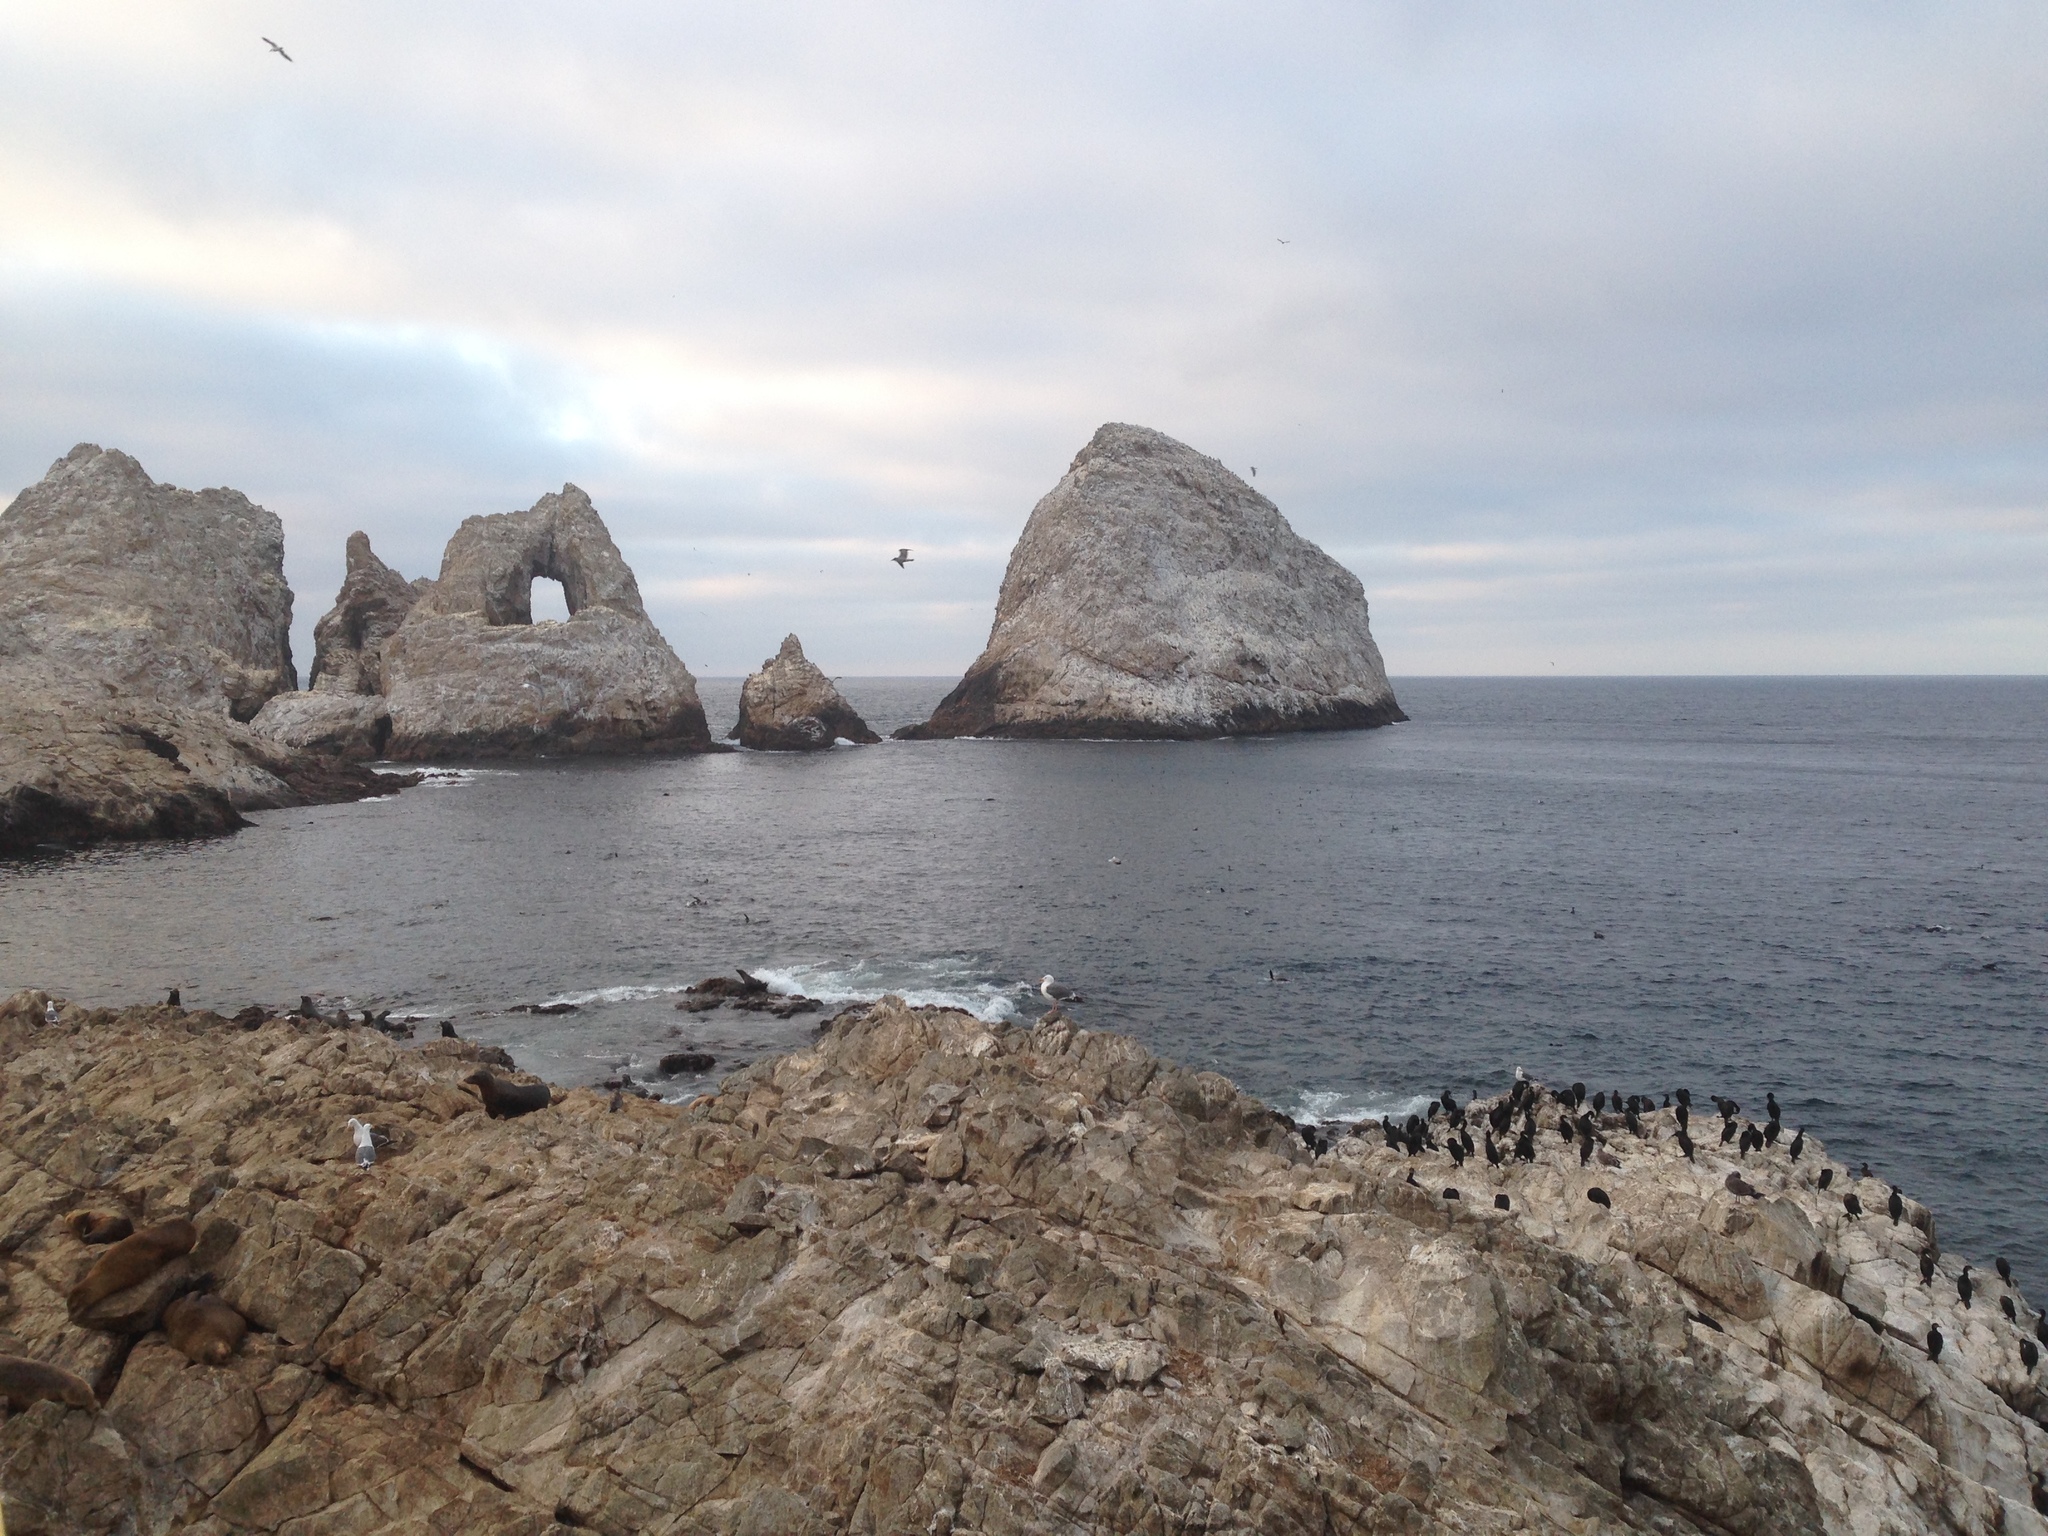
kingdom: Animalia
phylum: Chordata
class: Aves
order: Suliformes
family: Phalacrocoracidae
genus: Urile
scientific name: Urile penicillatus
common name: Brandt's cormorant
